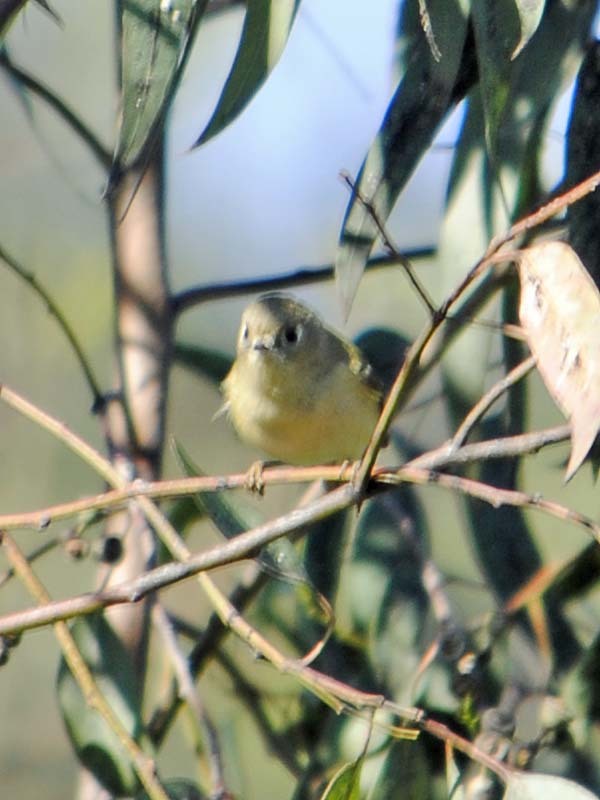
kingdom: Animalia
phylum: Chordata
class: Aves
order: Passeriformes
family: Regulidae
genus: Regulus
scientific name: Regulus calendula
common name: Ruby-crowned kinglet
